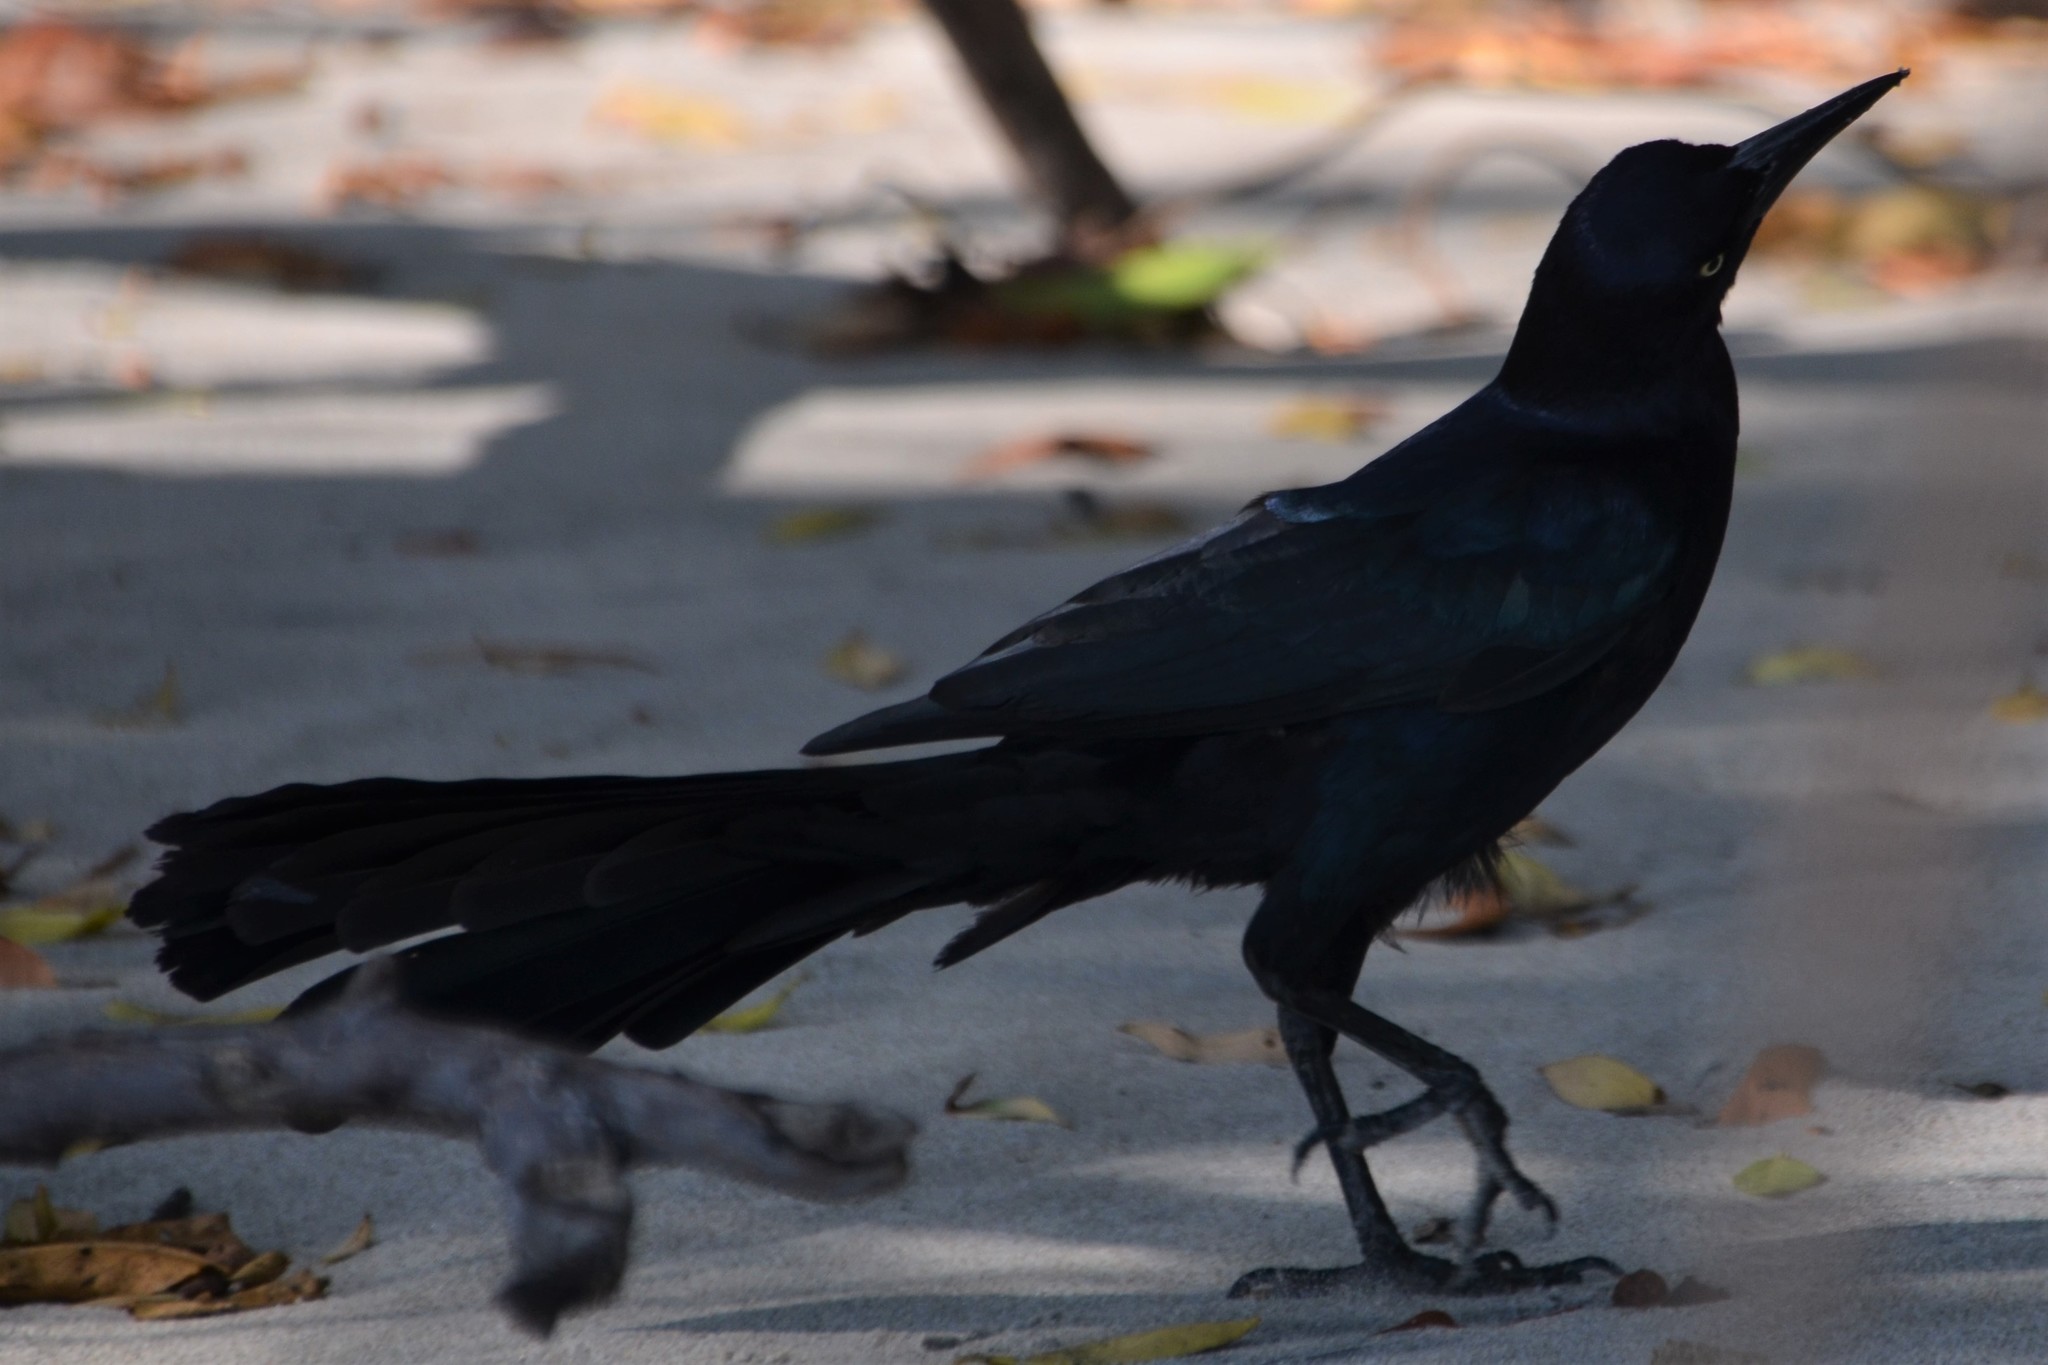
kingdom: Animalia
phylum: Chordata
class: Aves
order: Passeriformes
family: Icteridae
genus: Quiscalus
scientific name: Quiscalus mexicanus
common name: Great-tailed grackle
